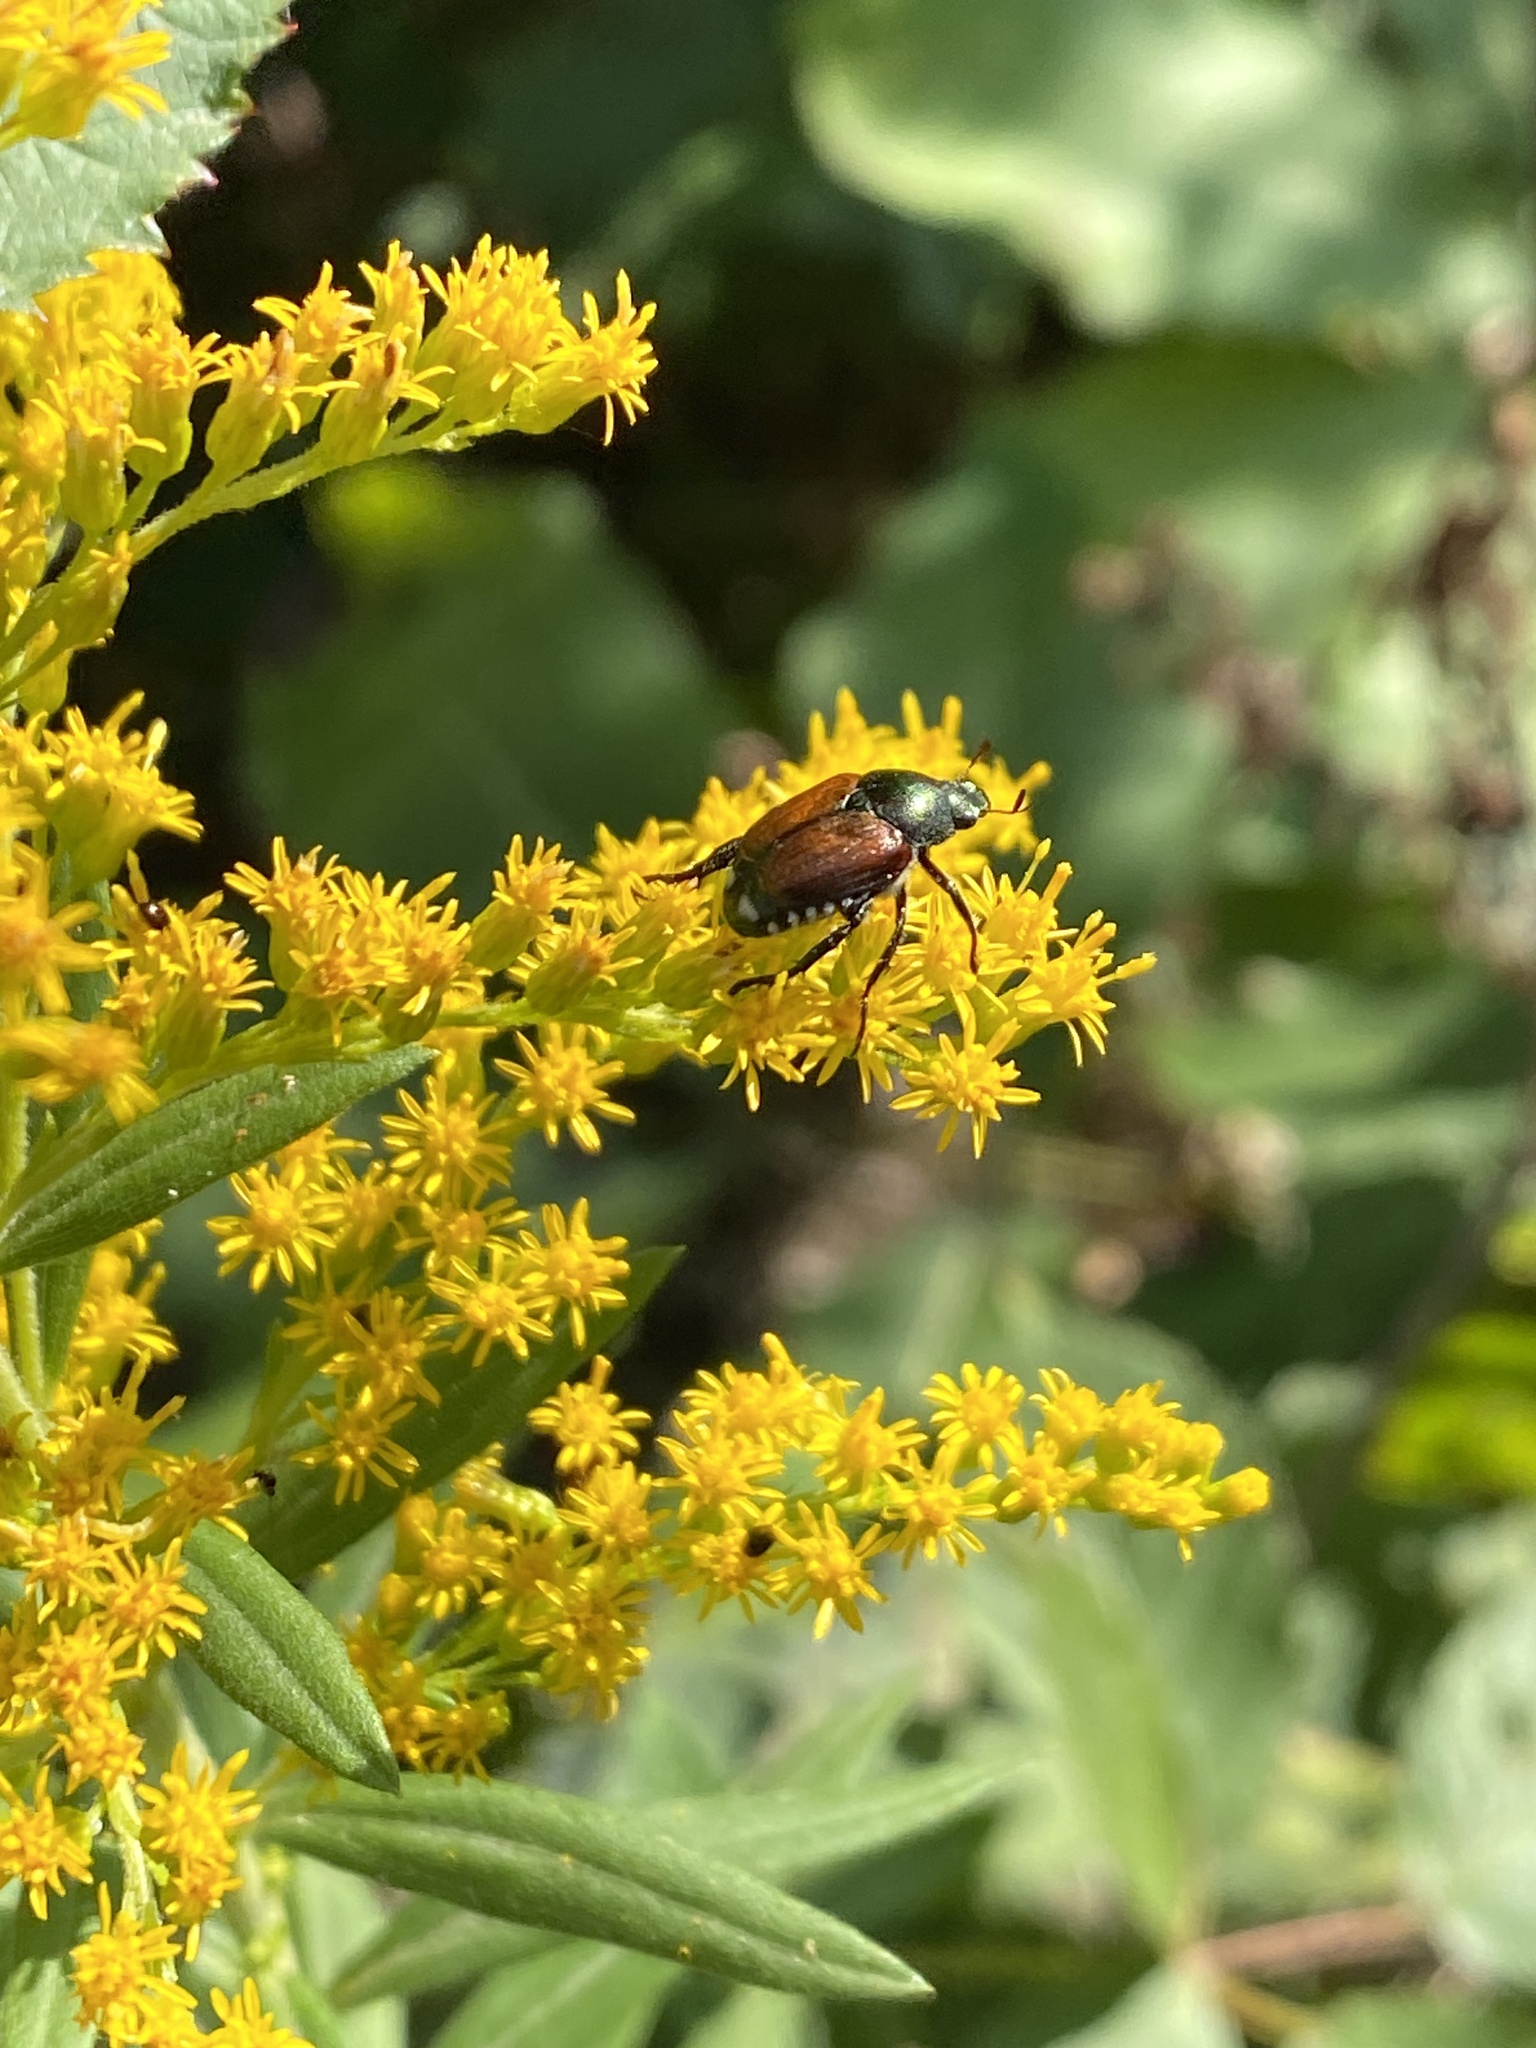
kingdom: Animalia
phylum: Arthropoda
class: Insecta
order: Coleoptera
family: Scarabaeidae
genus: Popillia
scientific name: Popillia japonica
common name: Japanese beetle
